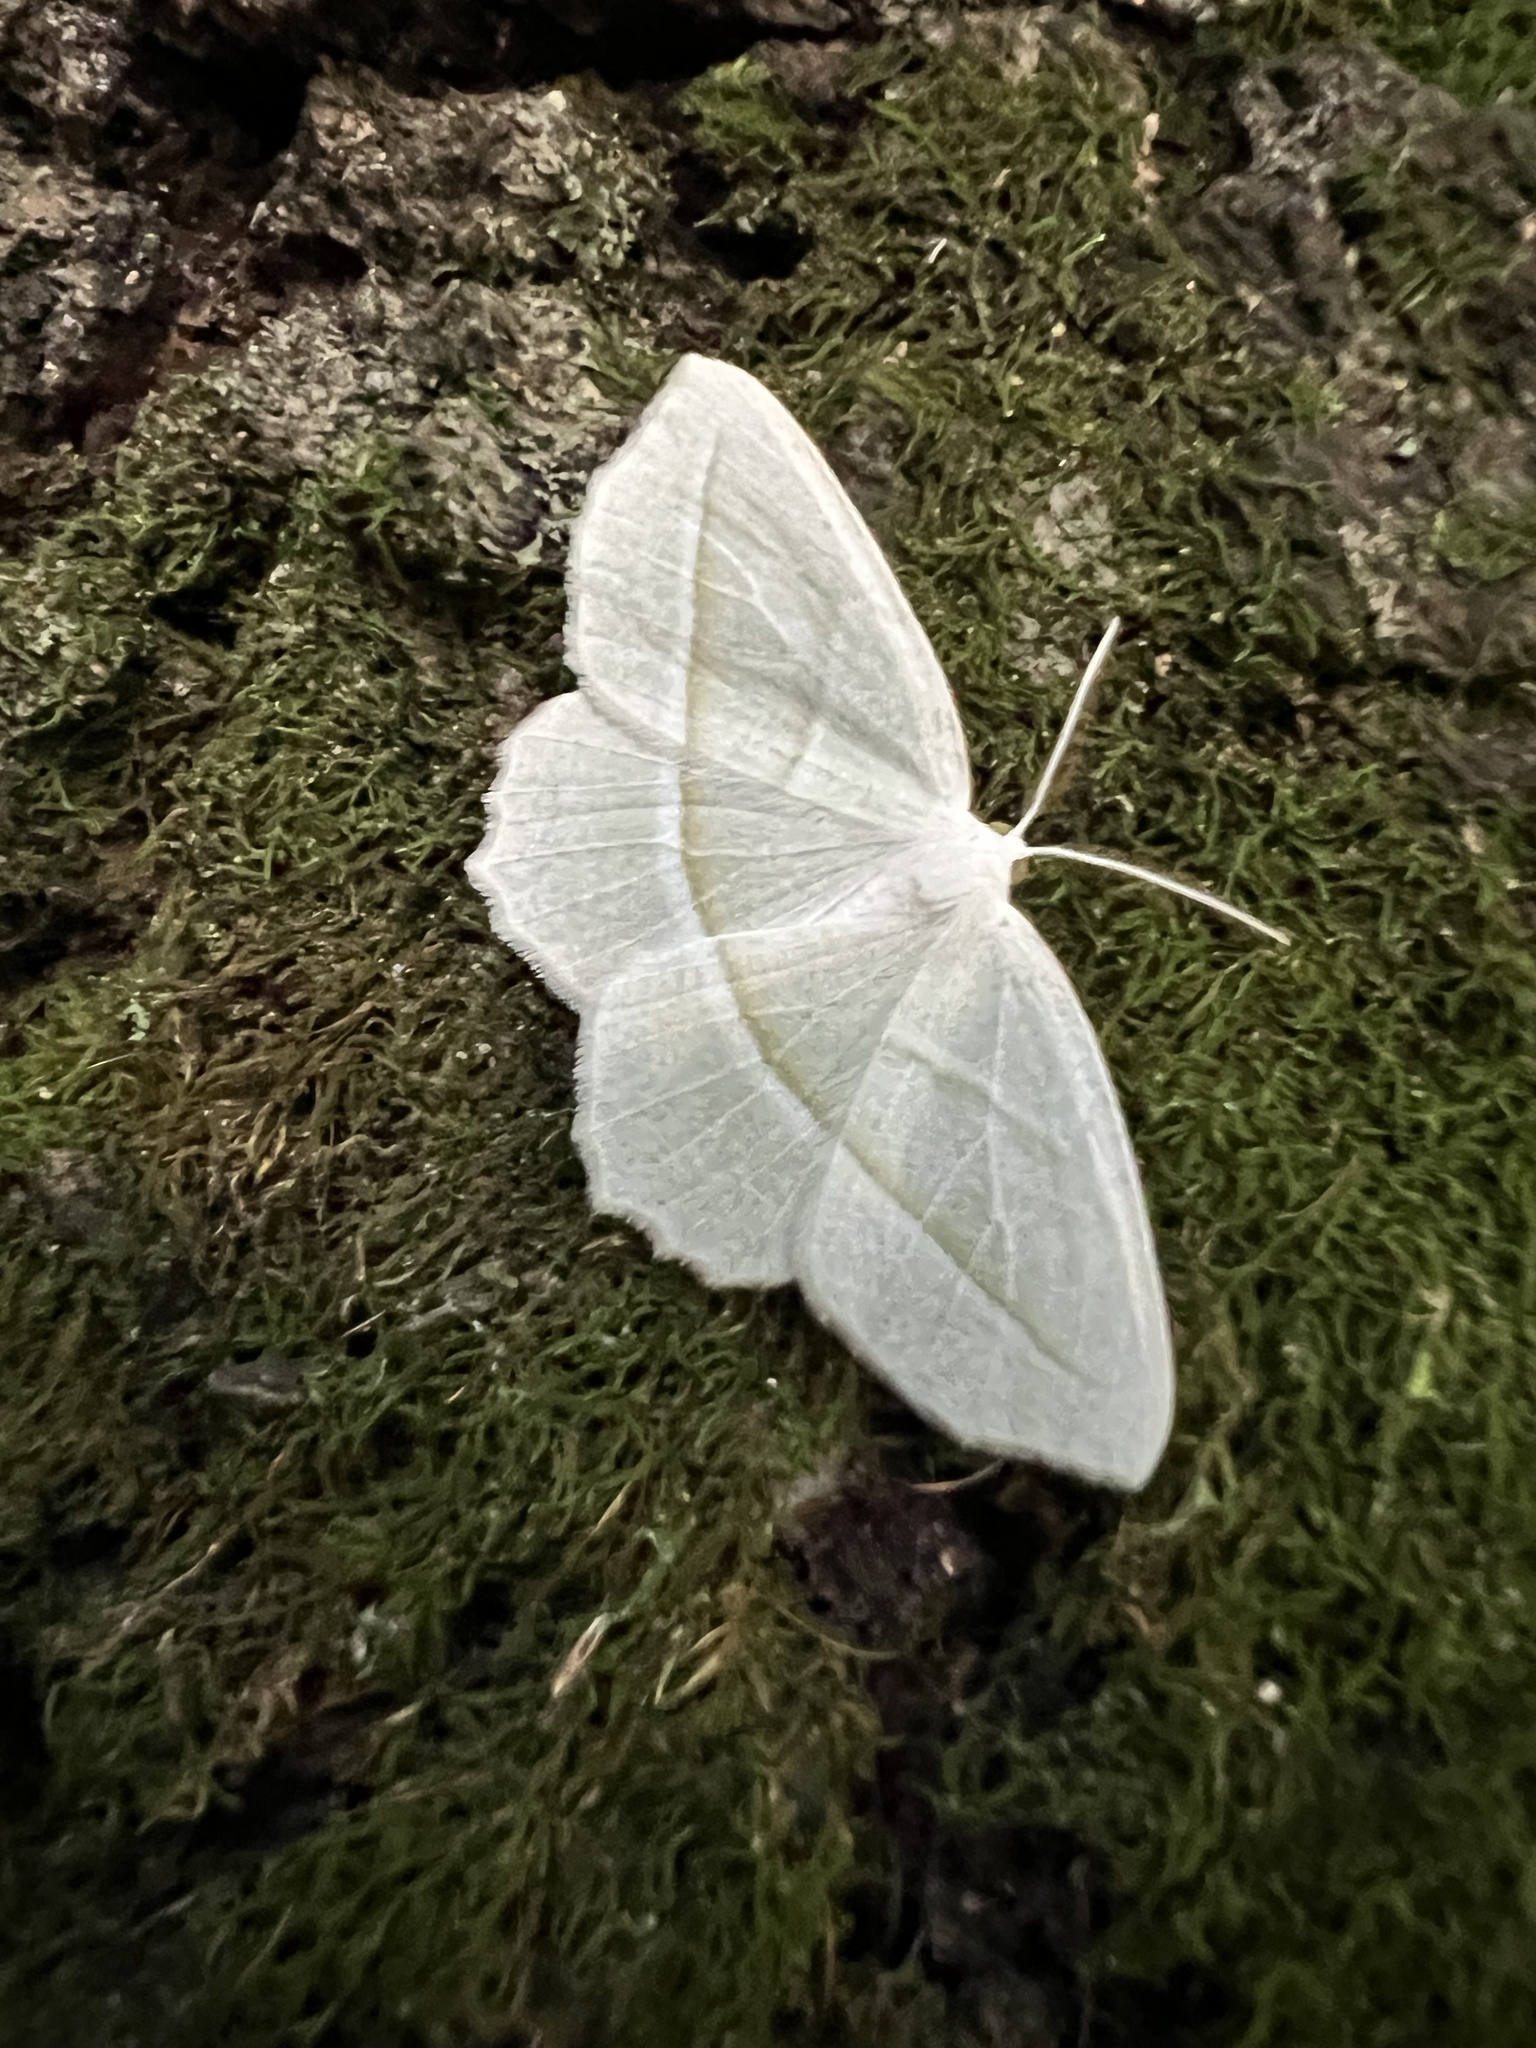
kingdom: Animalia
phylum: Arthropoda
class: Insecta
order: Lepidoptera
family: Geometridae
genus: Campaea
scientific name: Campaea perlata
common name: Fringed looper
